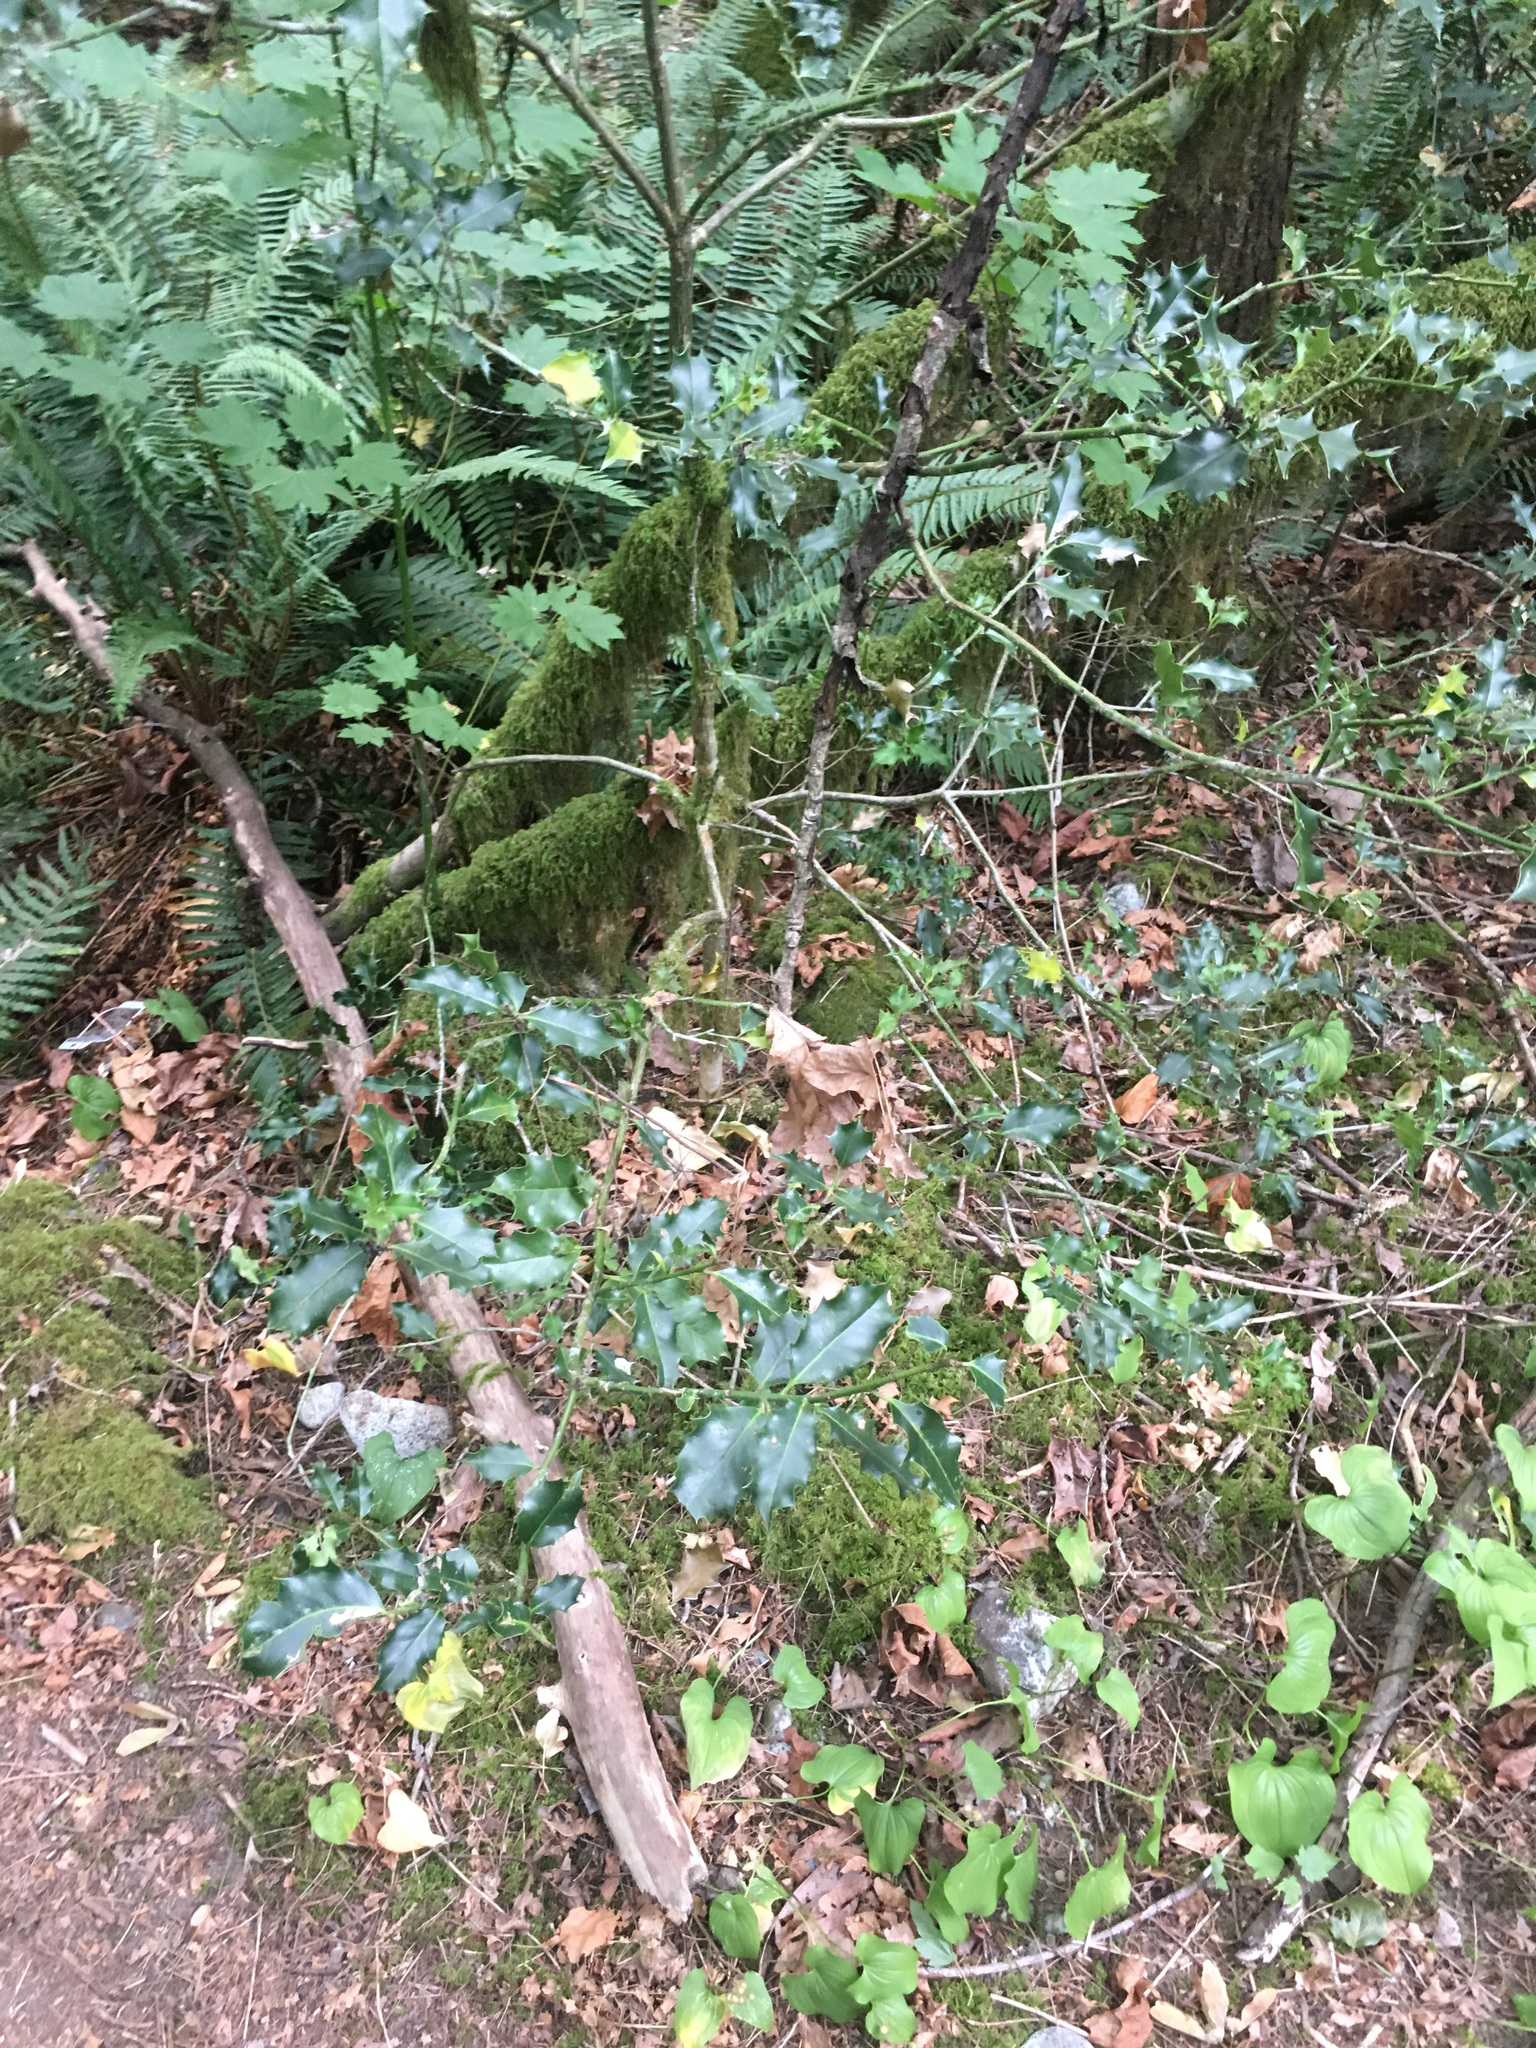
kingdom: Plantae
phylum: Tracheophyta
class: Magnoliopsida
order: Aquifoliales
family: Aquifoliaceae
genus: Ilex
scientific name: Ilex aquifolium
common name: English holly
